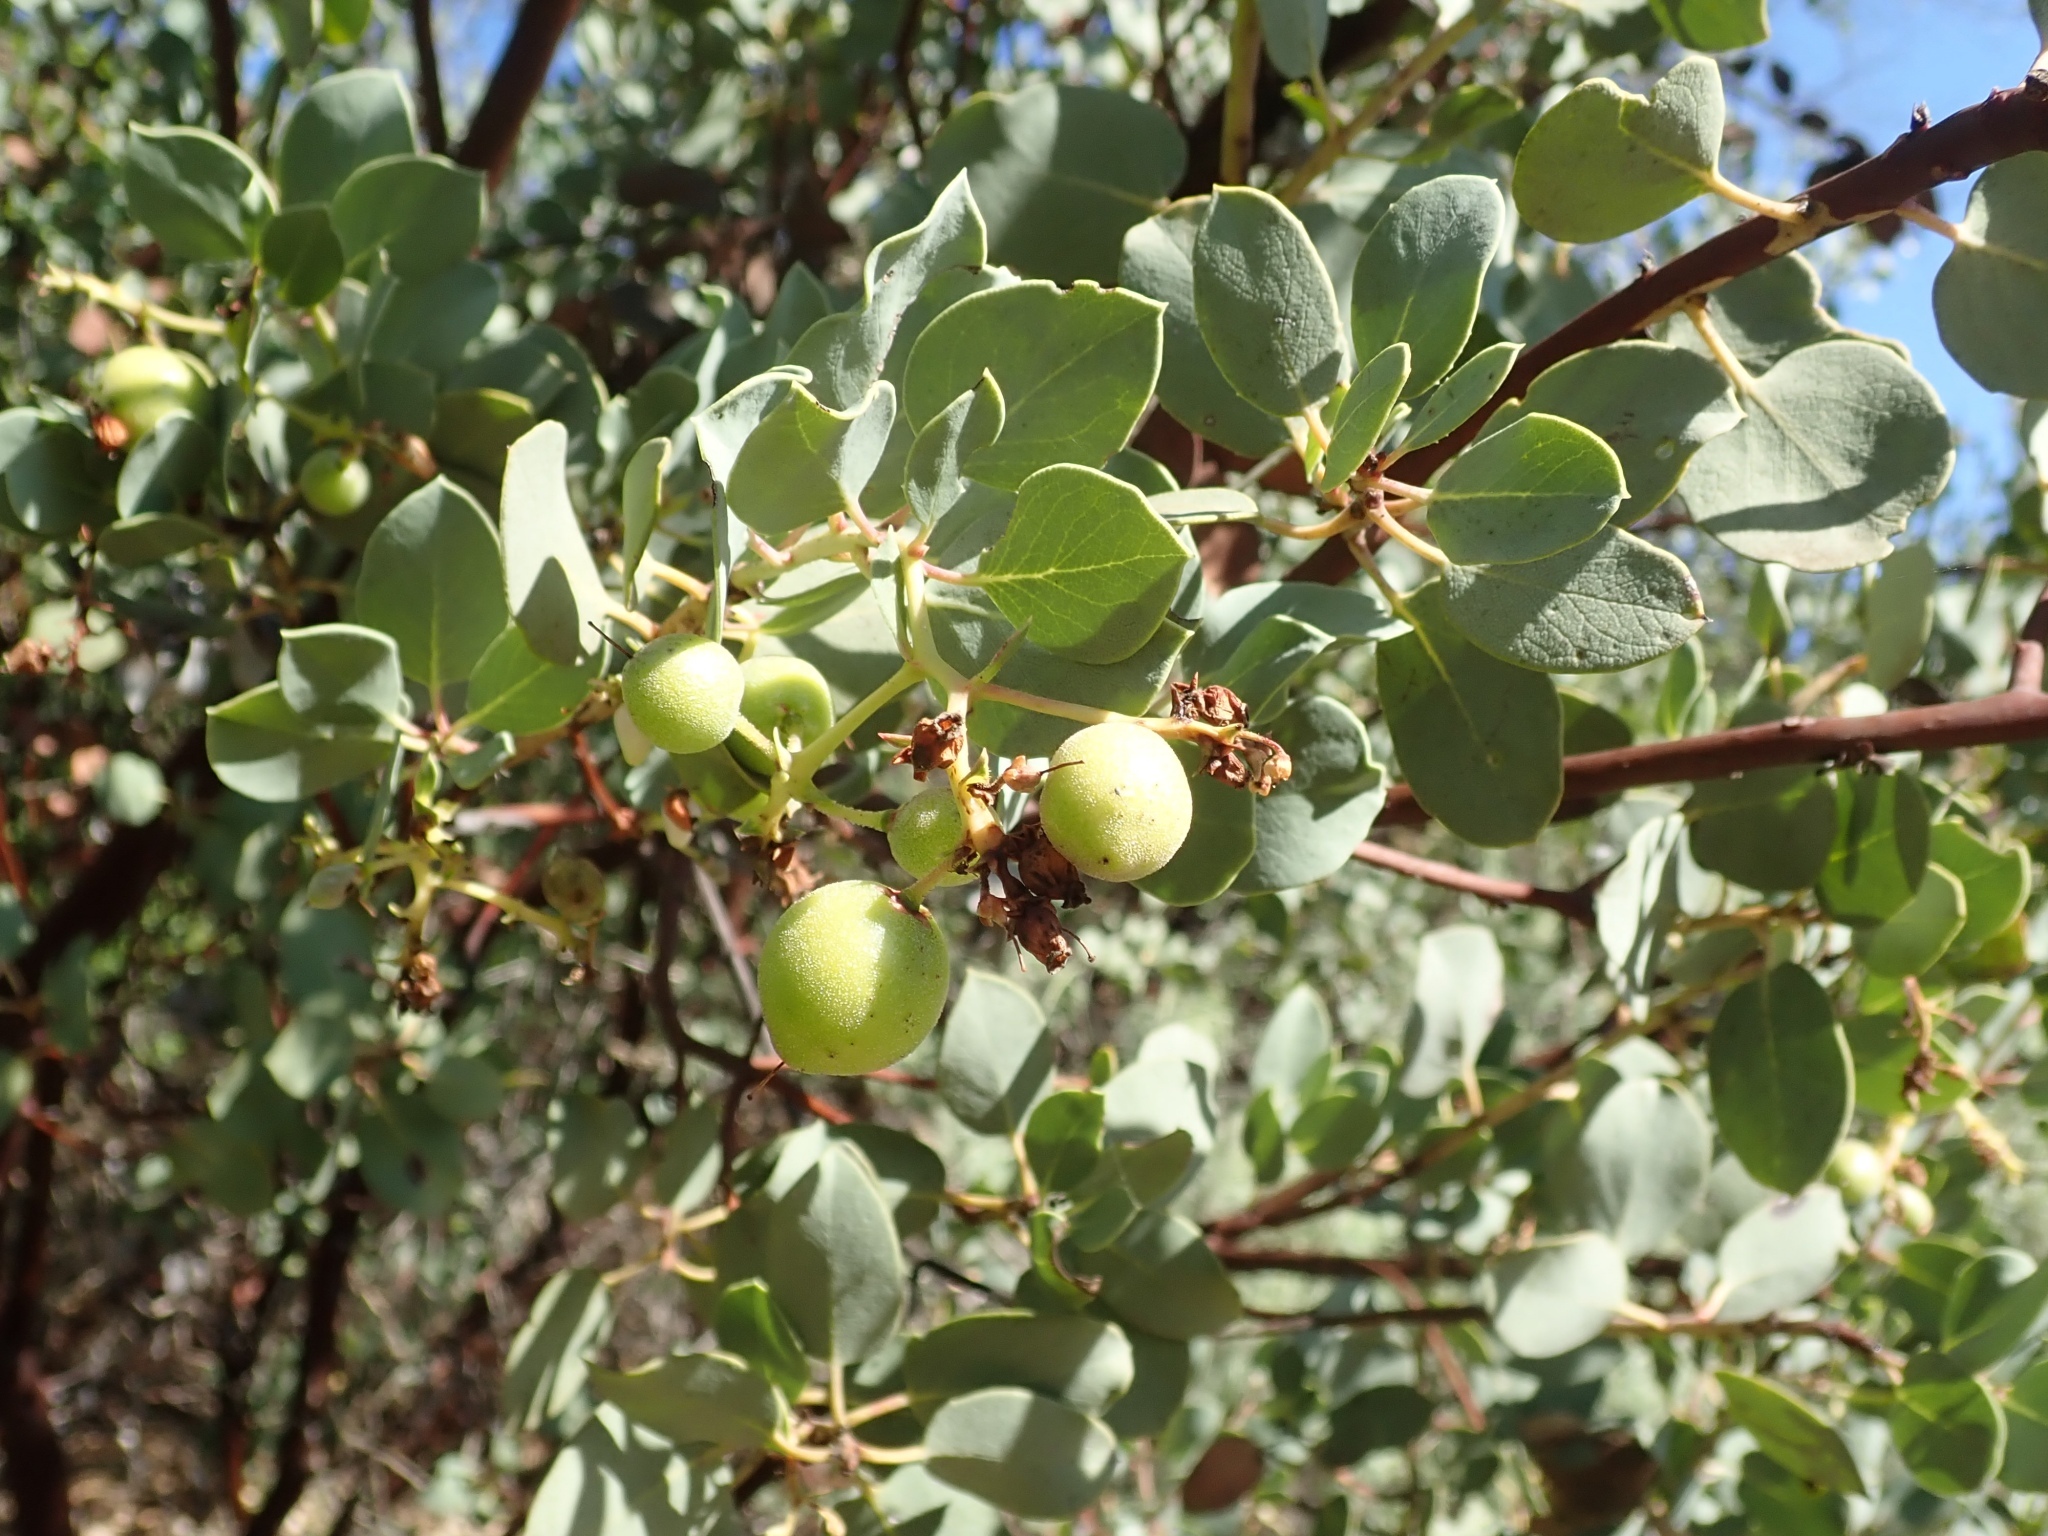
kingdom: Plantae
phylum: Tracheophyta
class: Magnoliopsida
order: Ericales
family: Ericaceae
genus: Arctostaphylos
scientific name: Arctostaphylos glauca
